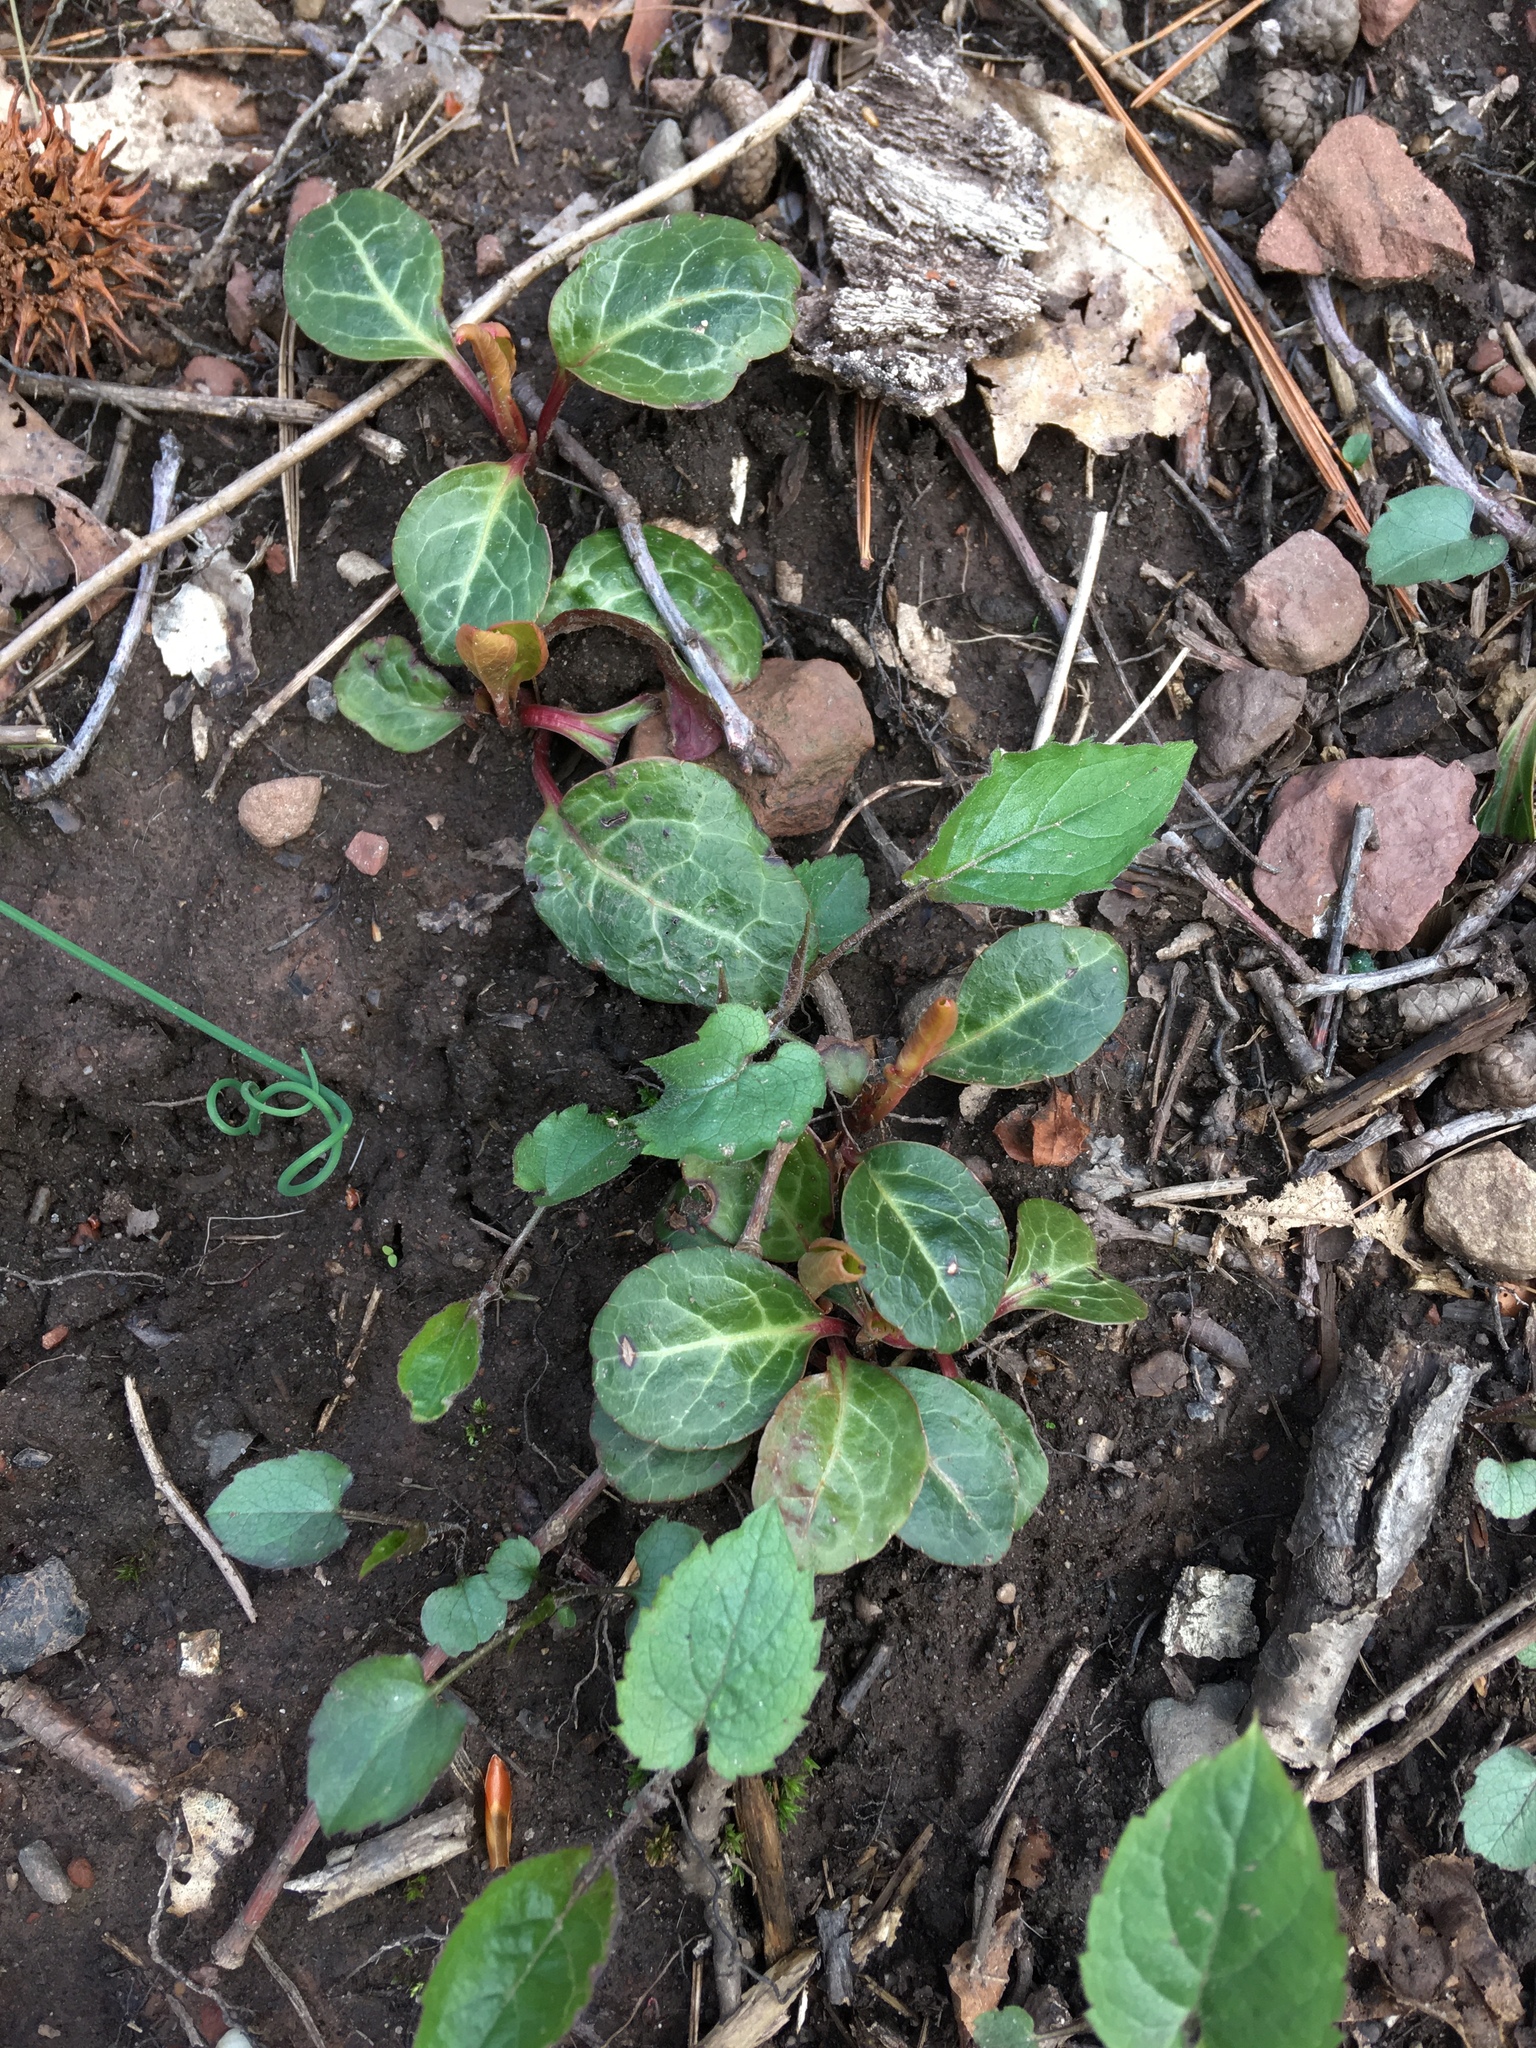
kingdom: Plantae
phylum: Tracheophyta
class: Magnoliopsida
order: Ericales
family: Ericaceae
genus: Pyrola
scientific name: Pyrola americana
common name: American wintergreen
